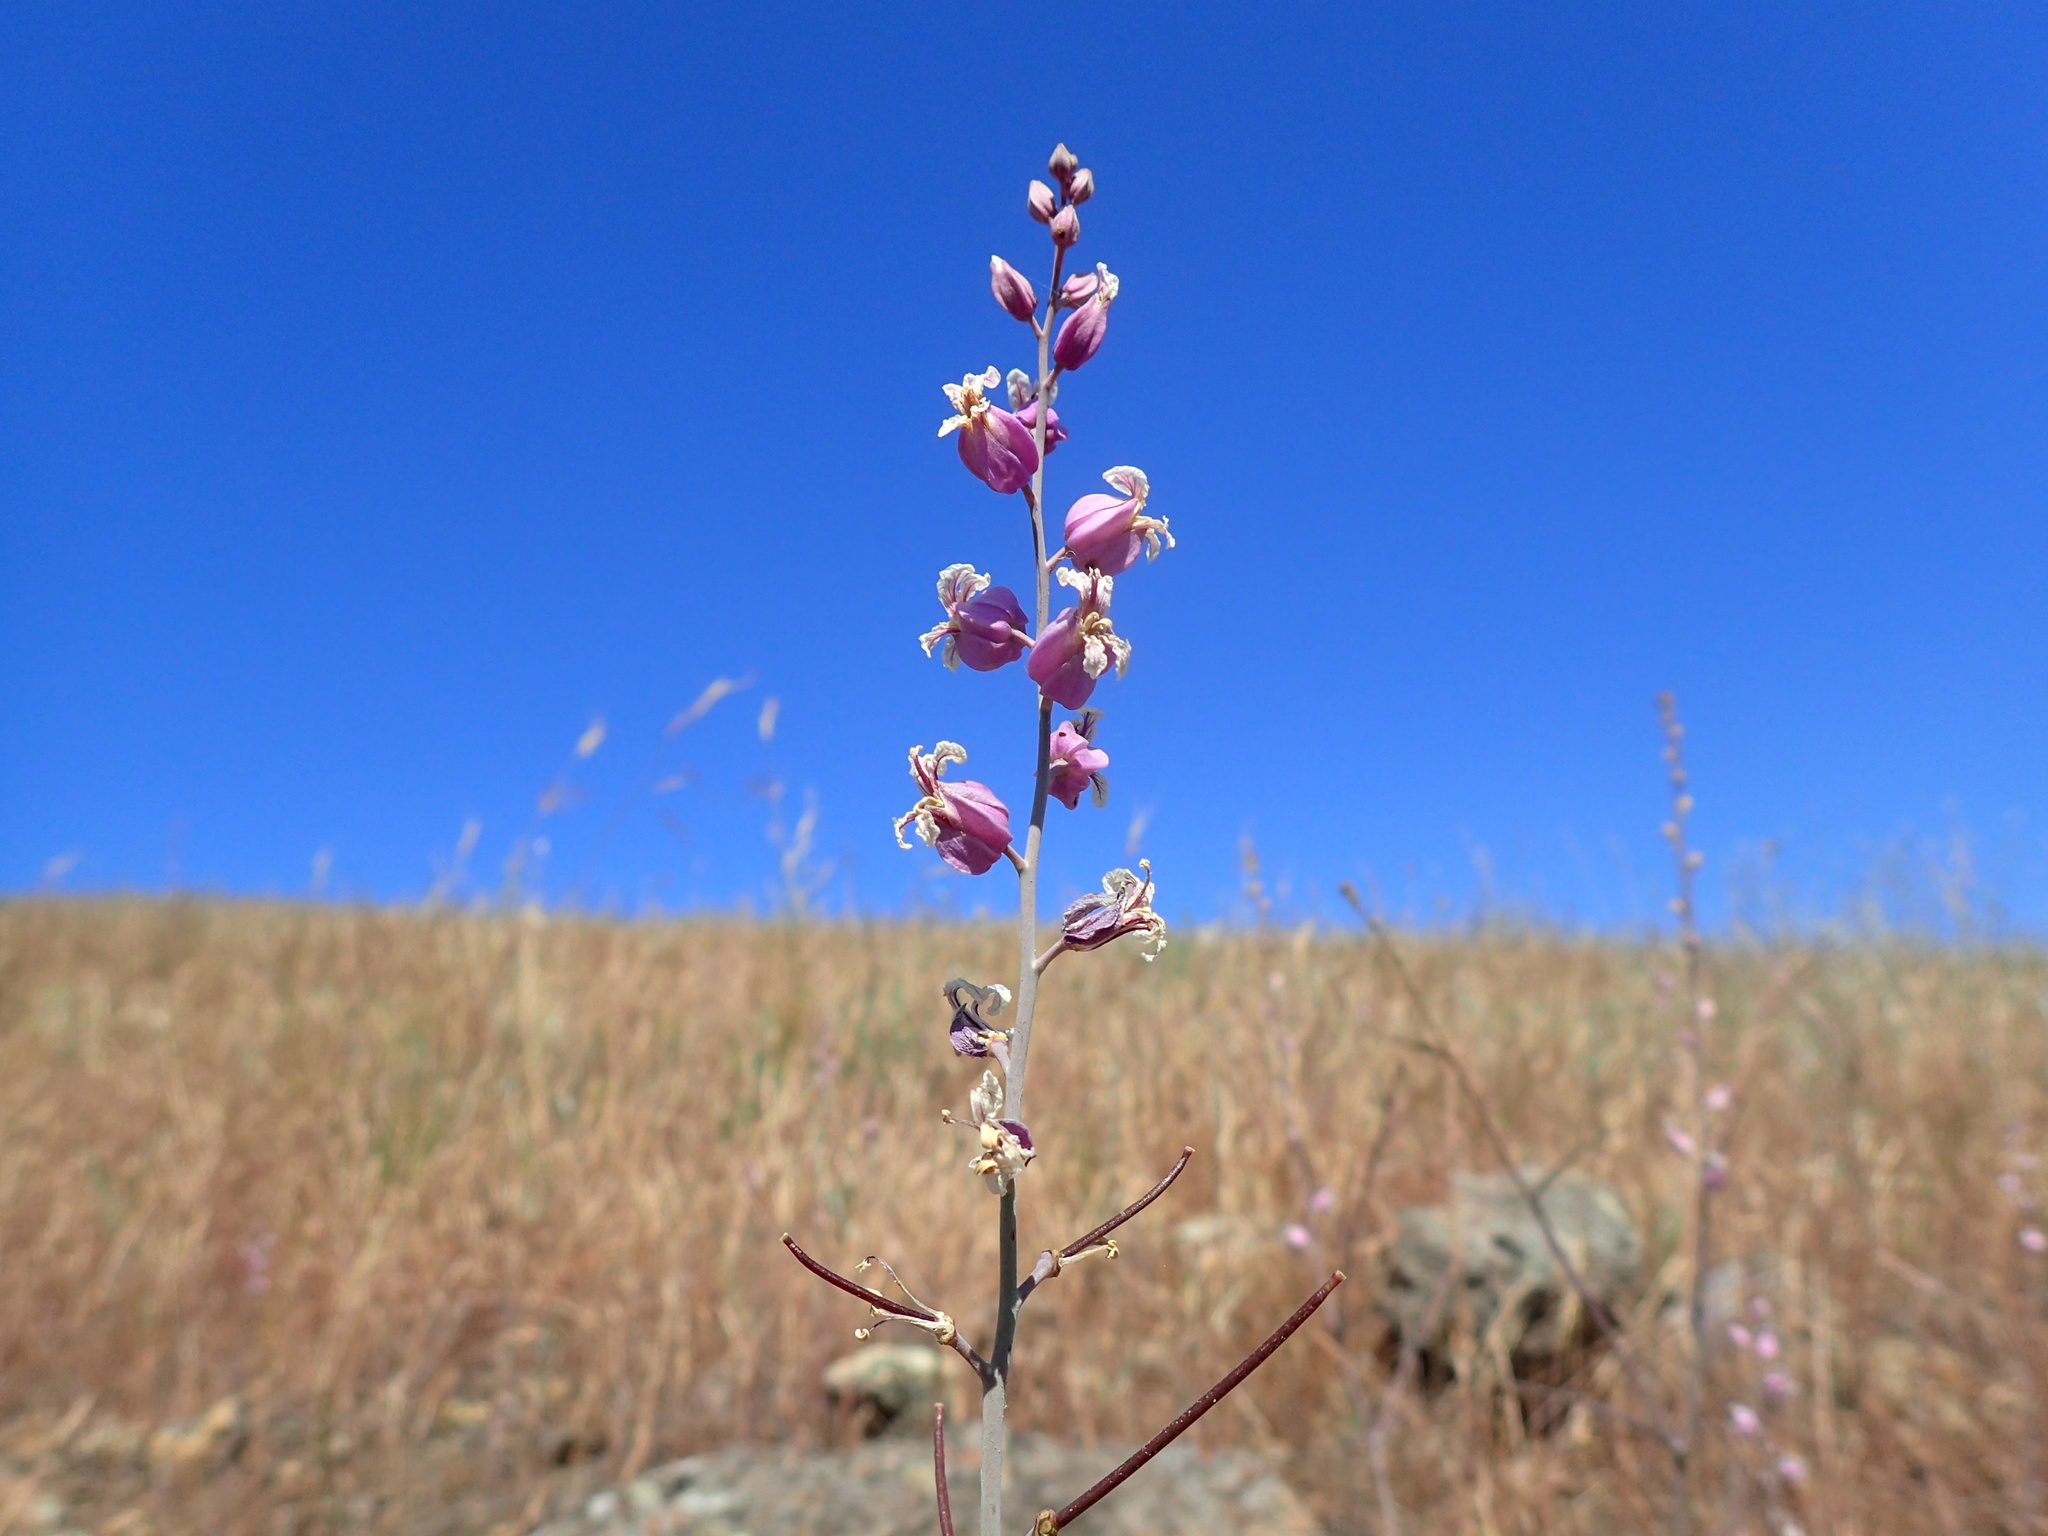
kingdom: Plantae
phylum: Tracheophyta
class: Magnoliopsida
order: Brassicales
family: Brassicaceae
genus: Streptanthus
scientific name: Streptanthus glandulosus
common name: Jewel-flower
